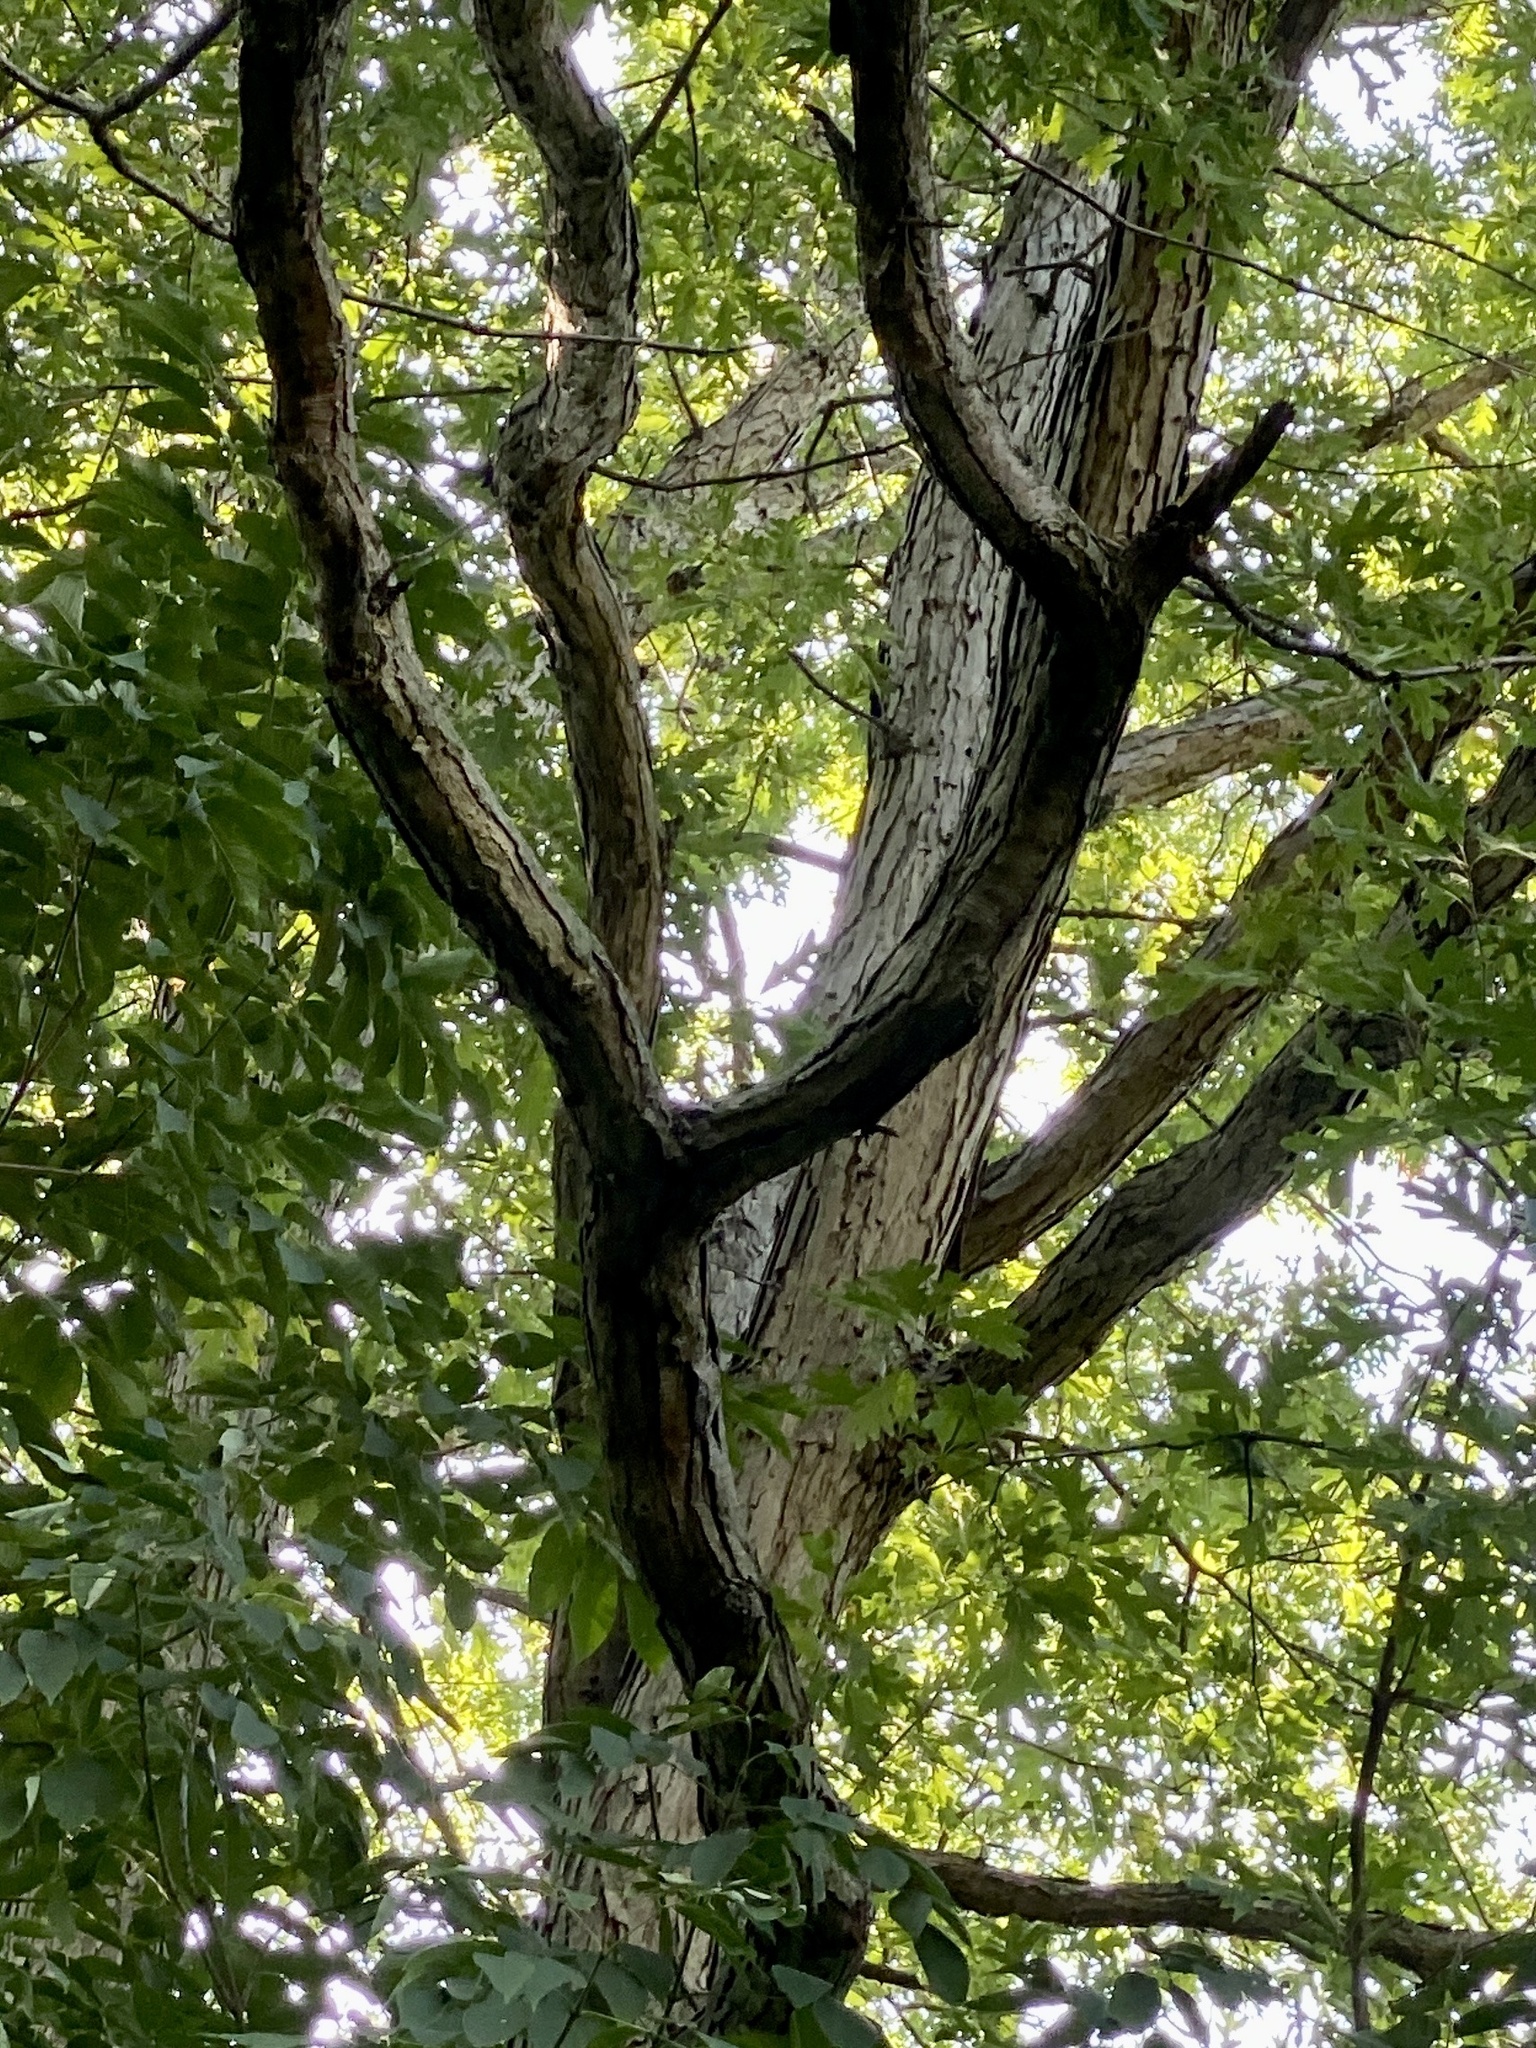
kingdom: Plantae
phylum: Tracheophyta
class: Magnoliopsida
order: Fagales
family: Fagaceae
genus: Quercus
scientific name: Quercus alba
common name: White oak
